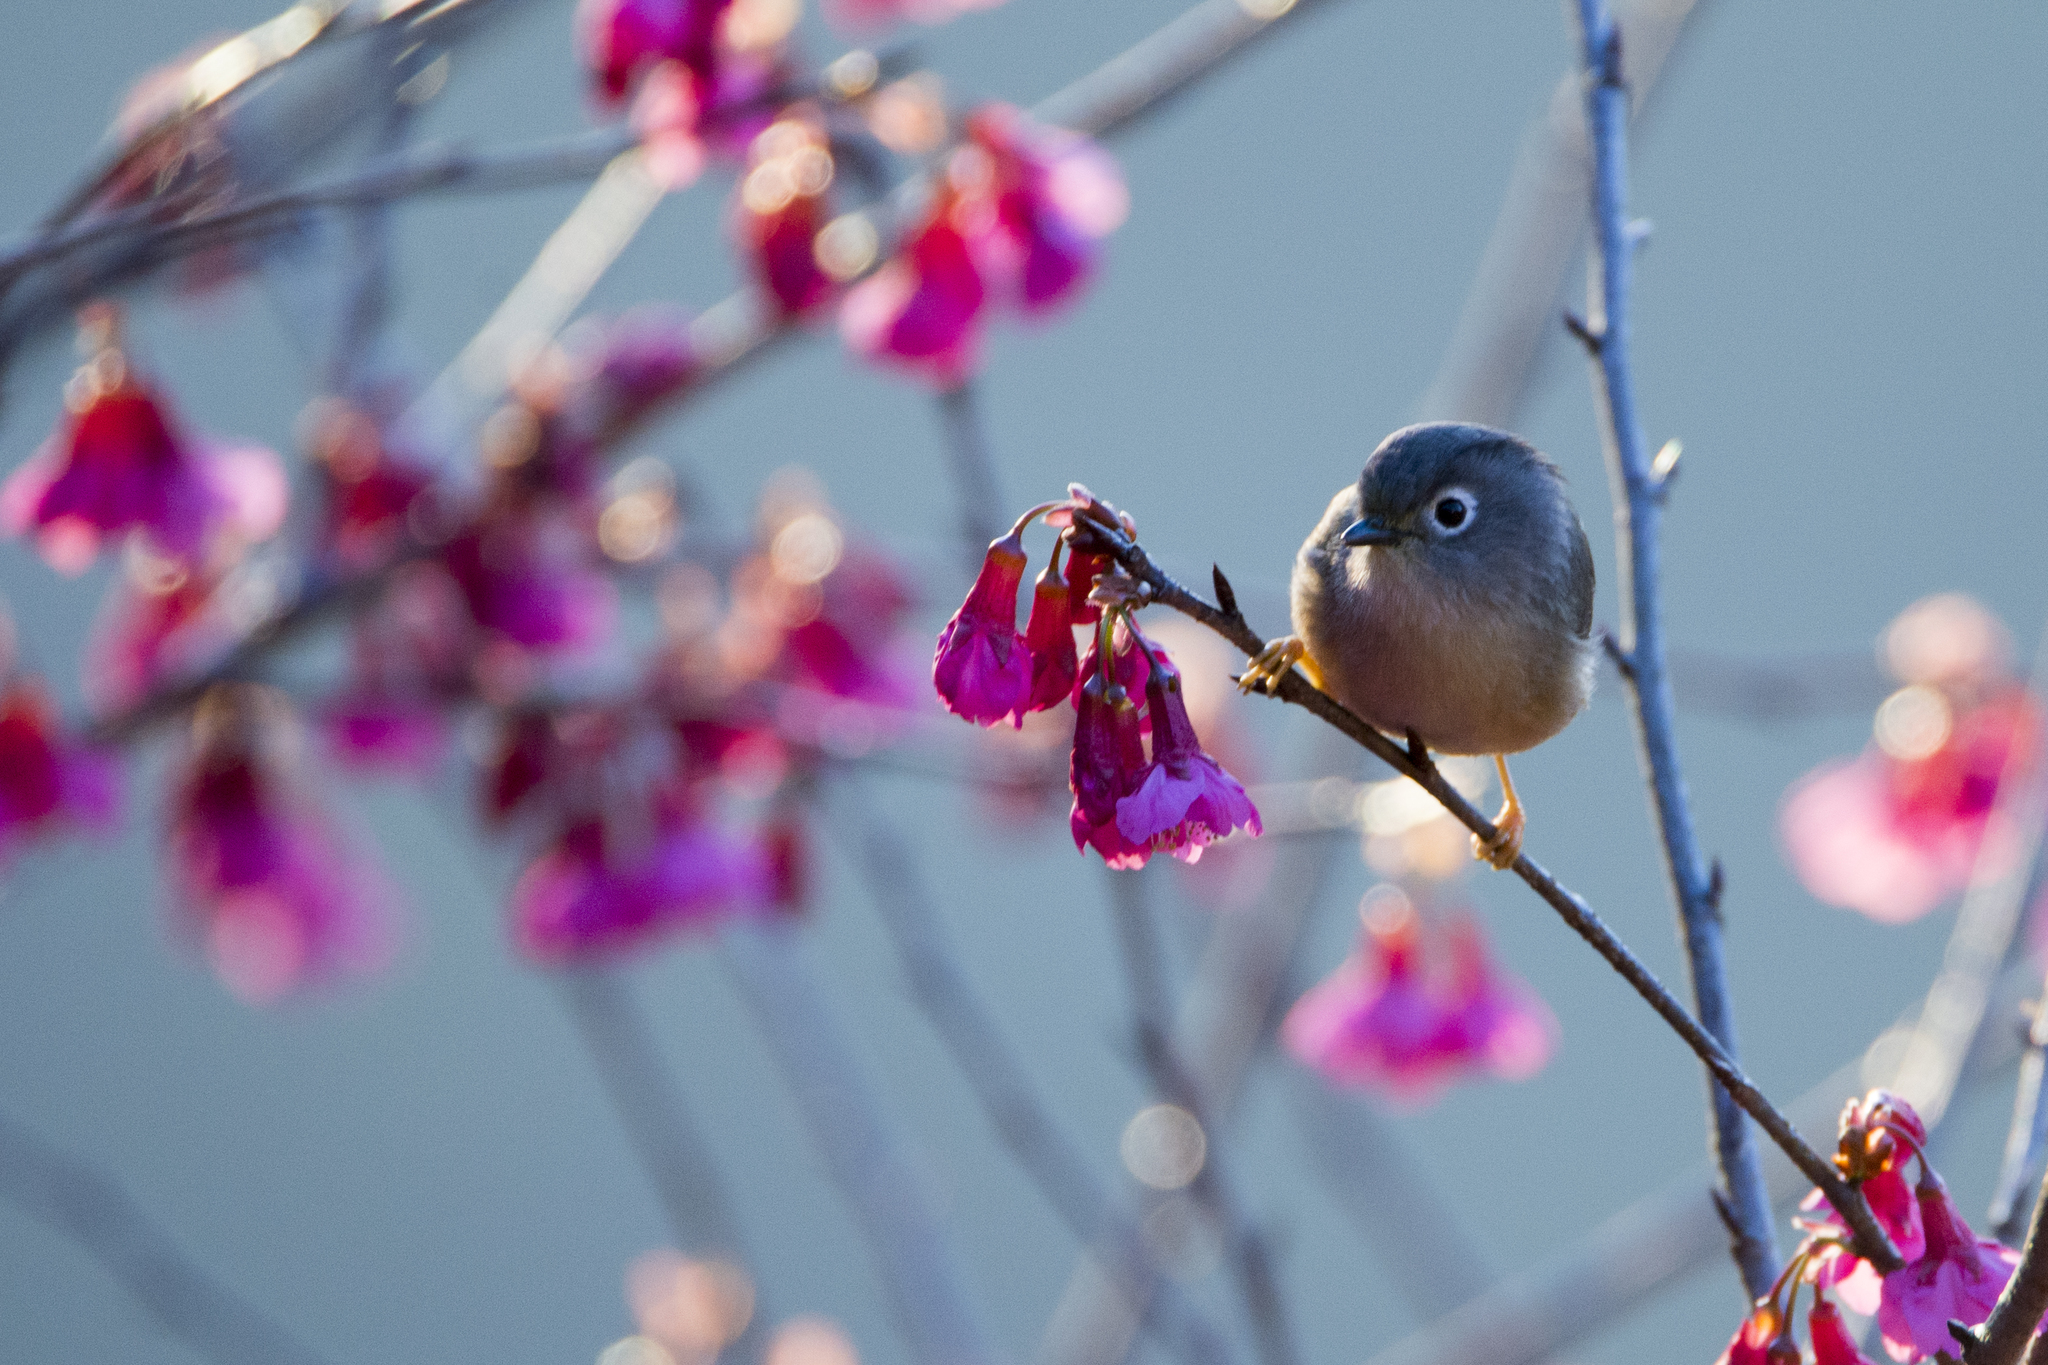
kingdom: Animalia
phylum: Chordata
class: Aves
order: Passeriformes
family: Pellorneidae
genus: Alcippe
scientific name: Alcippe morrisonia
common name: Grey-cheeked fulvetta
